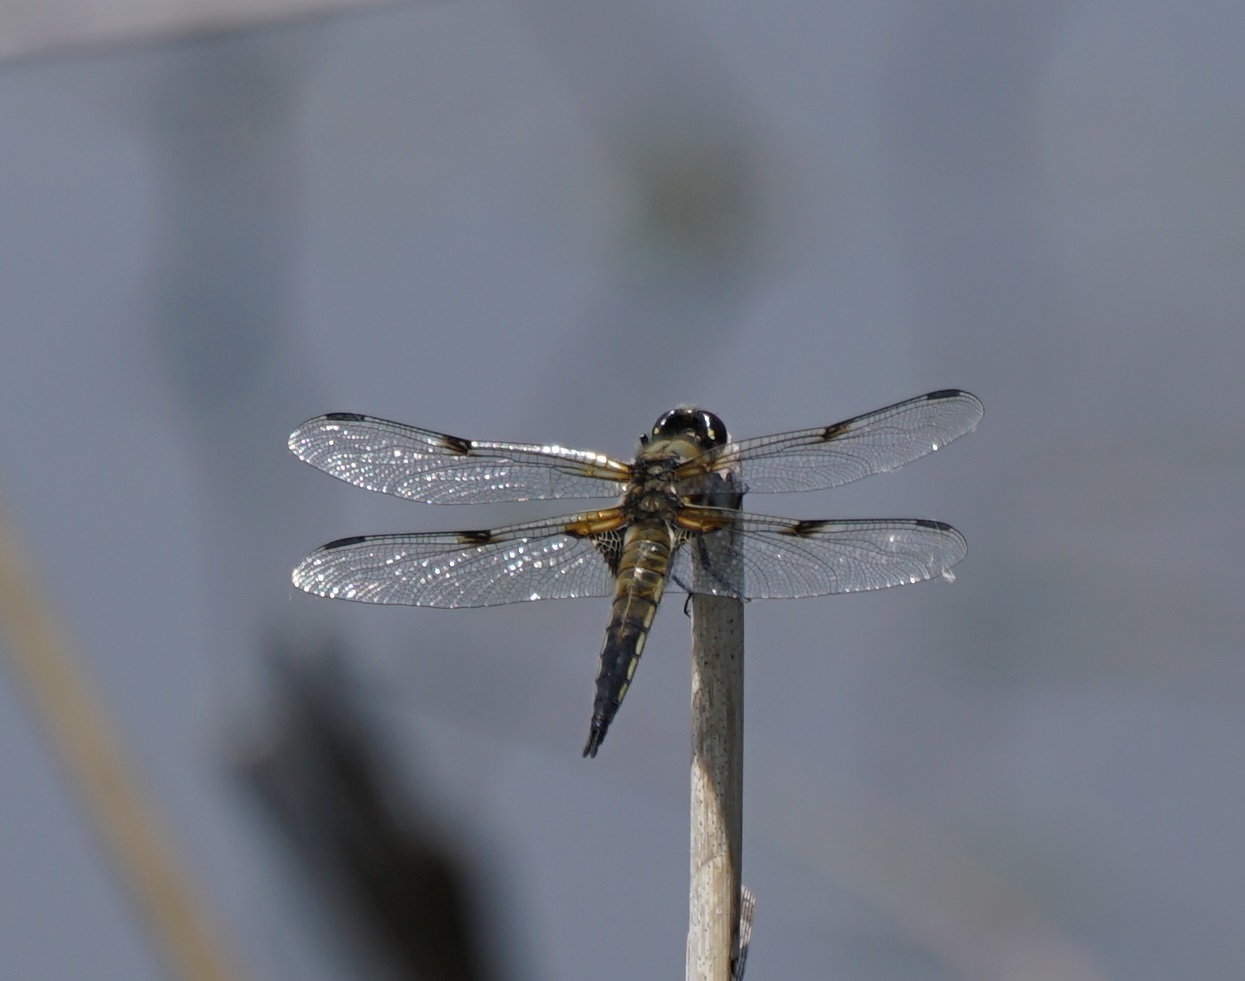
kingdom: Animalia
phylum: Arthropoda
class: Insecta
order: Odonata
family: Libellulidae
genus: Libellula
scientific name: Libellula quadrimaculata
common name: Four-spotted chaser
